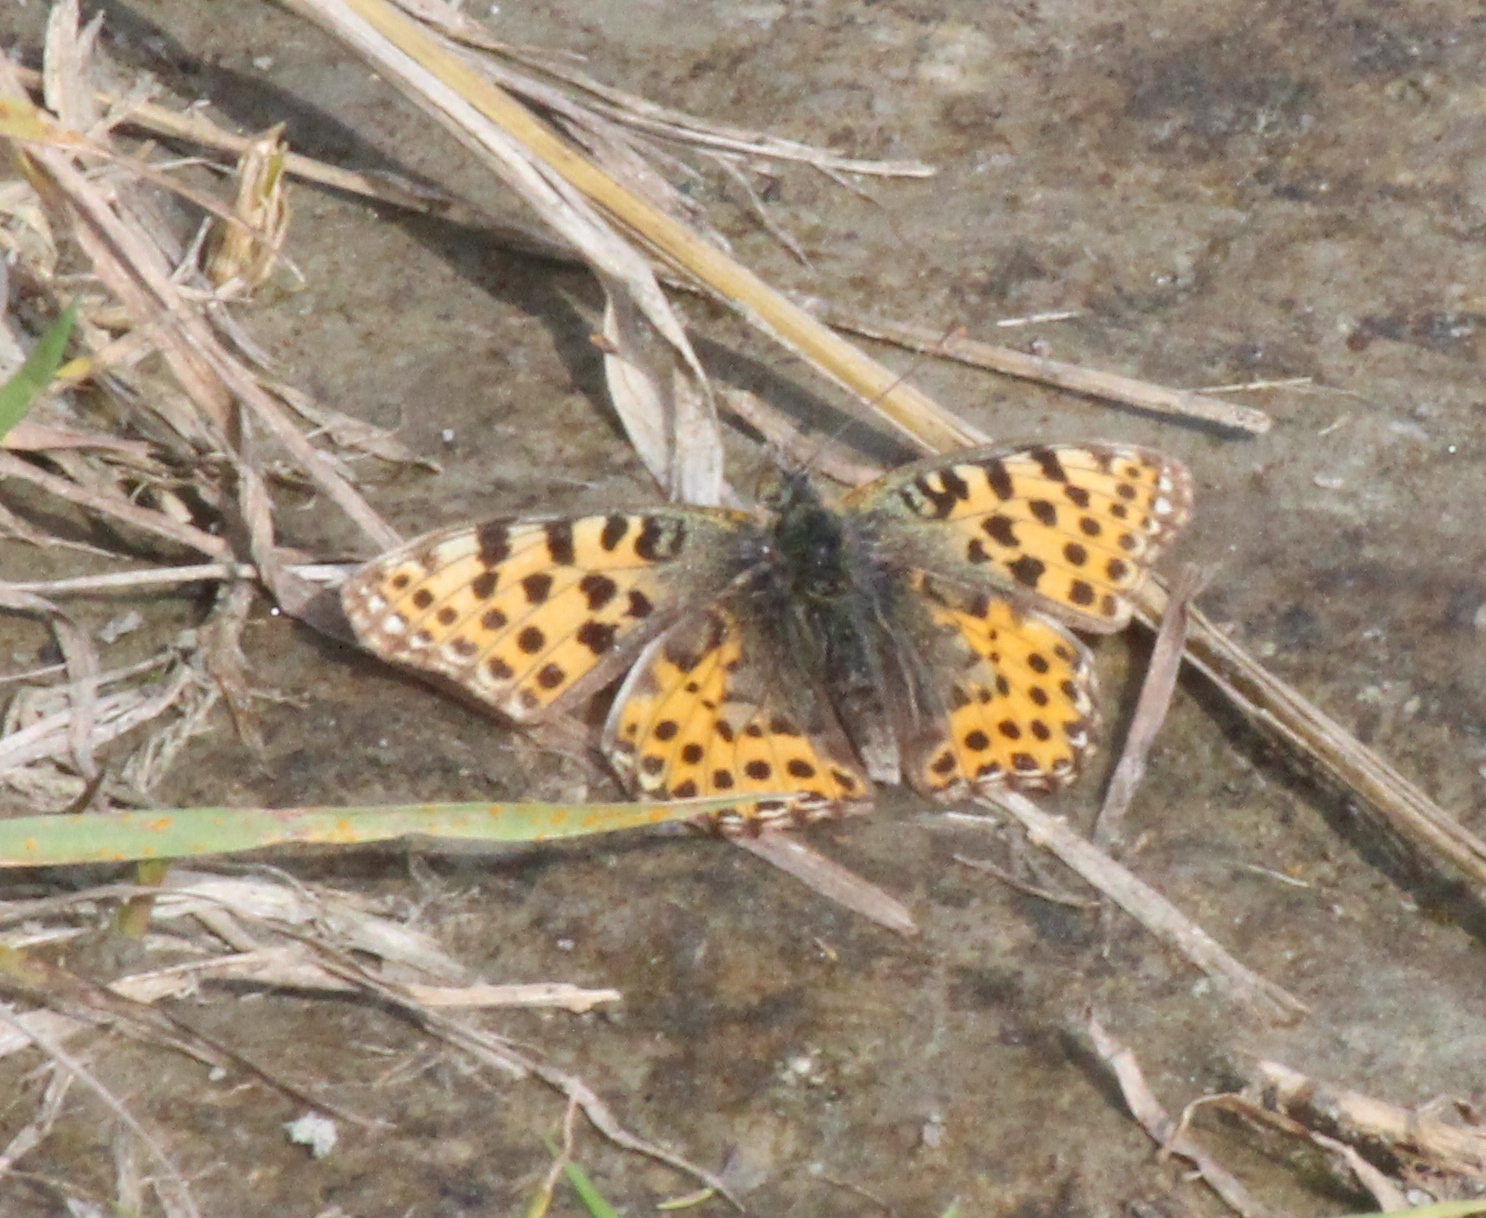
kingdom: Animalia
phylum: Arthropoda
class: Insecta
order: Lepidoptera
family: Nymphalidae
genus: Issoria
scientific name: Issoria lathonia
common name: Queen of spain fritillary
